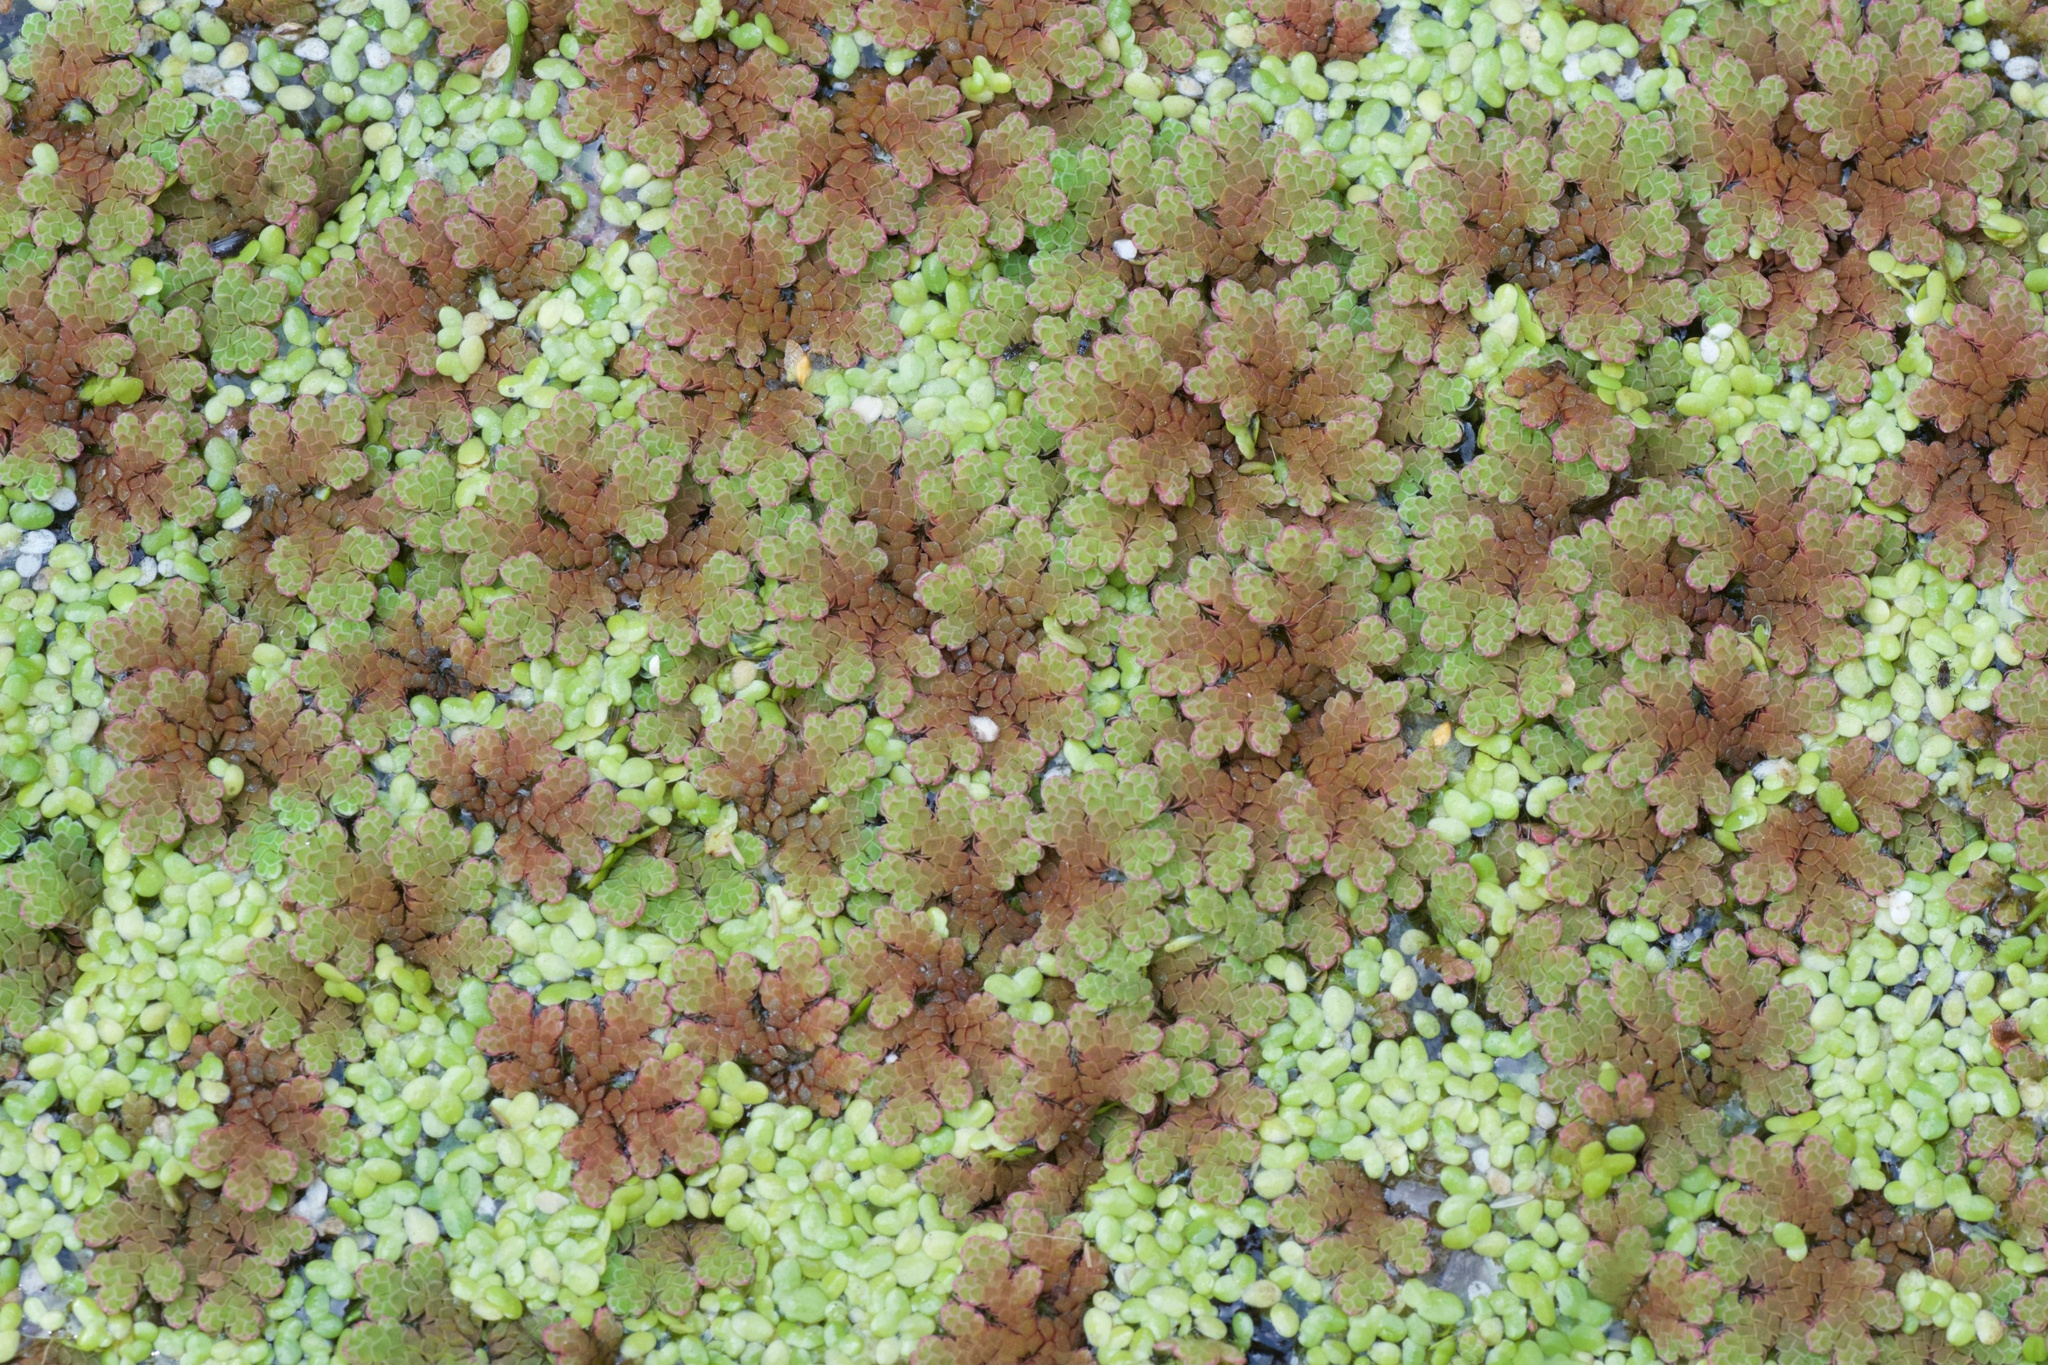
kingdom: Plantae
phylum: Tracheophyta
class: Polypodiopsida
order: Salviniales
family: Salviniaceae
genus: Azolla
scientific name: Azolla rubra
